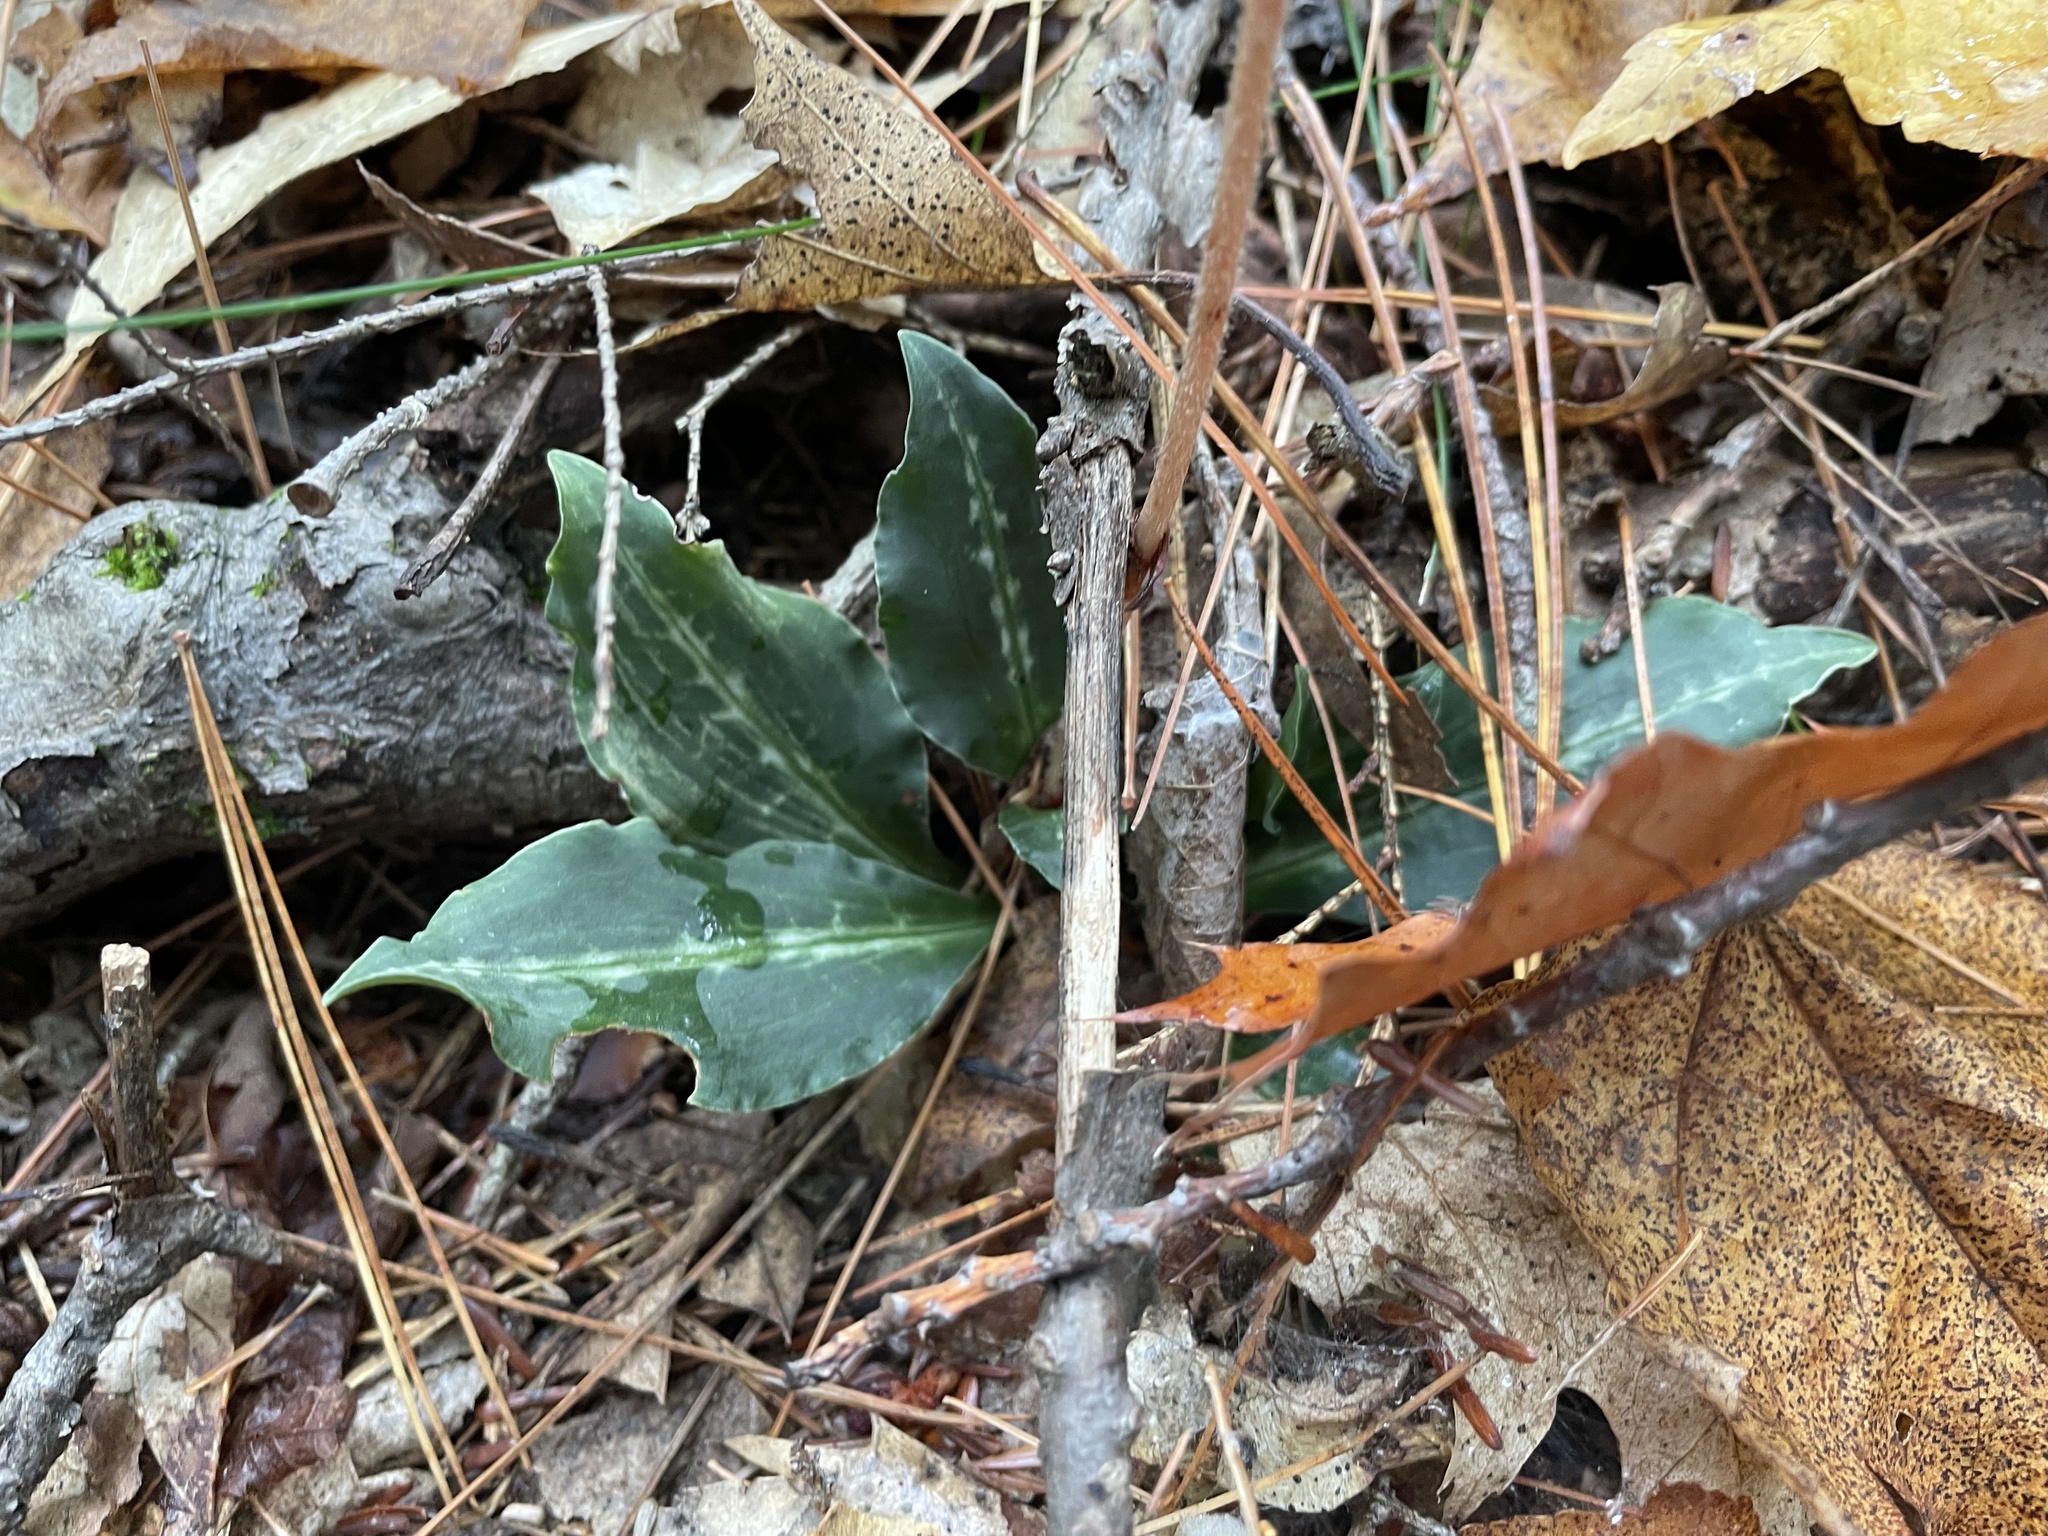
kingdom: Plantae
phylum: Tracheophyta
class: Liliopsida
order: Asparagales
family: Orchidaceae
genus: Goodyera
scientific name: Goodyera oblongifolia
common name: Giant rattlesnake-plantain
